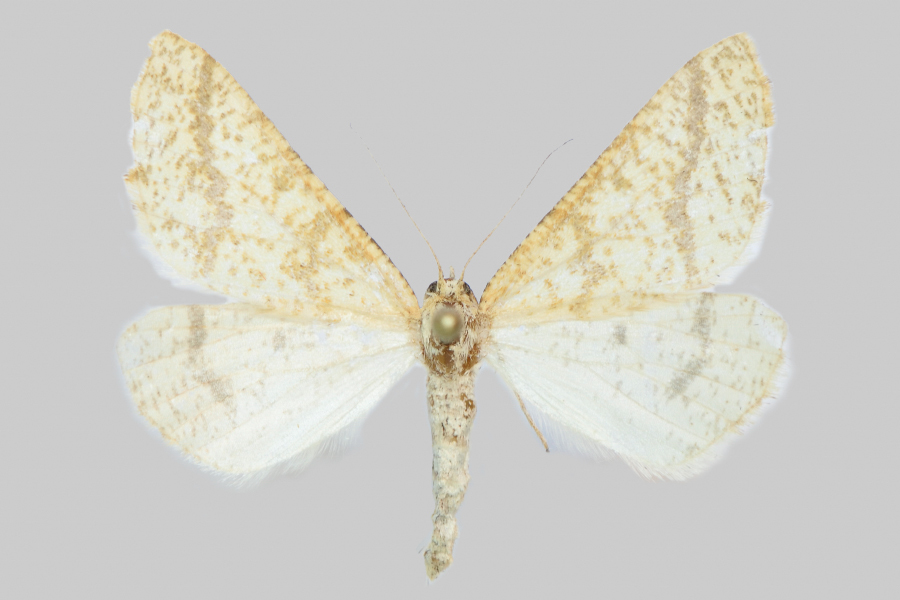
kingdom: Animalia
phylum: Arthropoda
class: Insecta
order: Lepidoptera
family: Geometridae
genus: Aspitates
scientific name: Aspitates ochrearia
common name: Yellow belle
